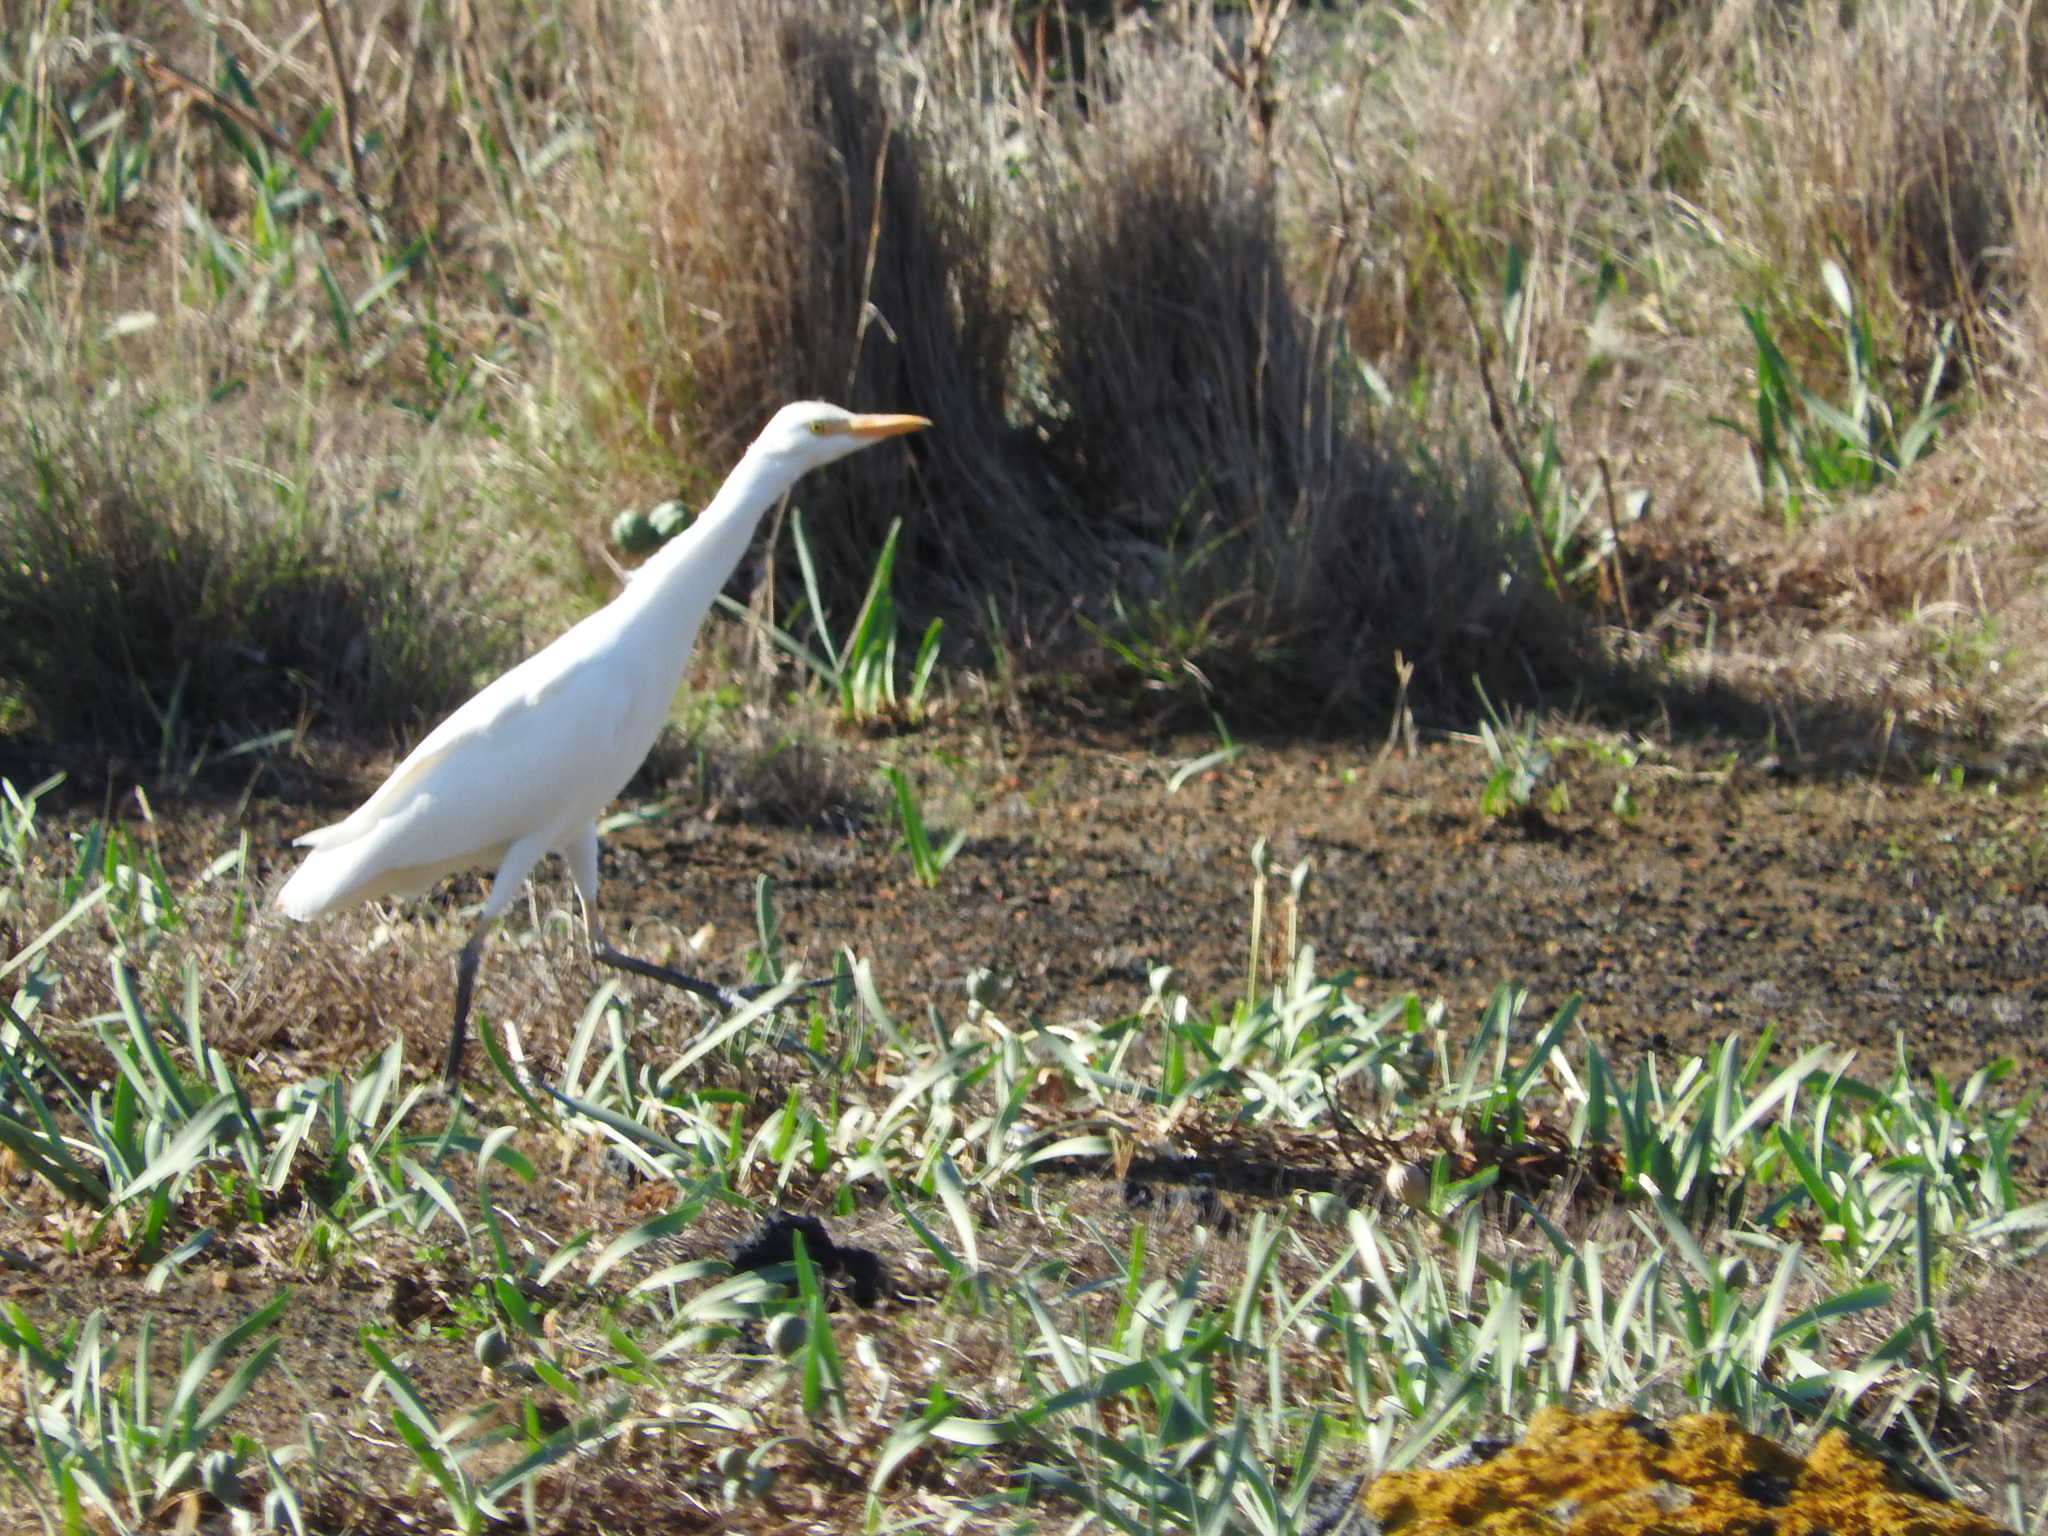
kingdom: Animalia
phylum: Chordata
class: Aves
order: Pelecaniformes
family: Ardeidae
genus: Bubulcus
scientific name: Bubulcus ibis
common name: Cattle egret
